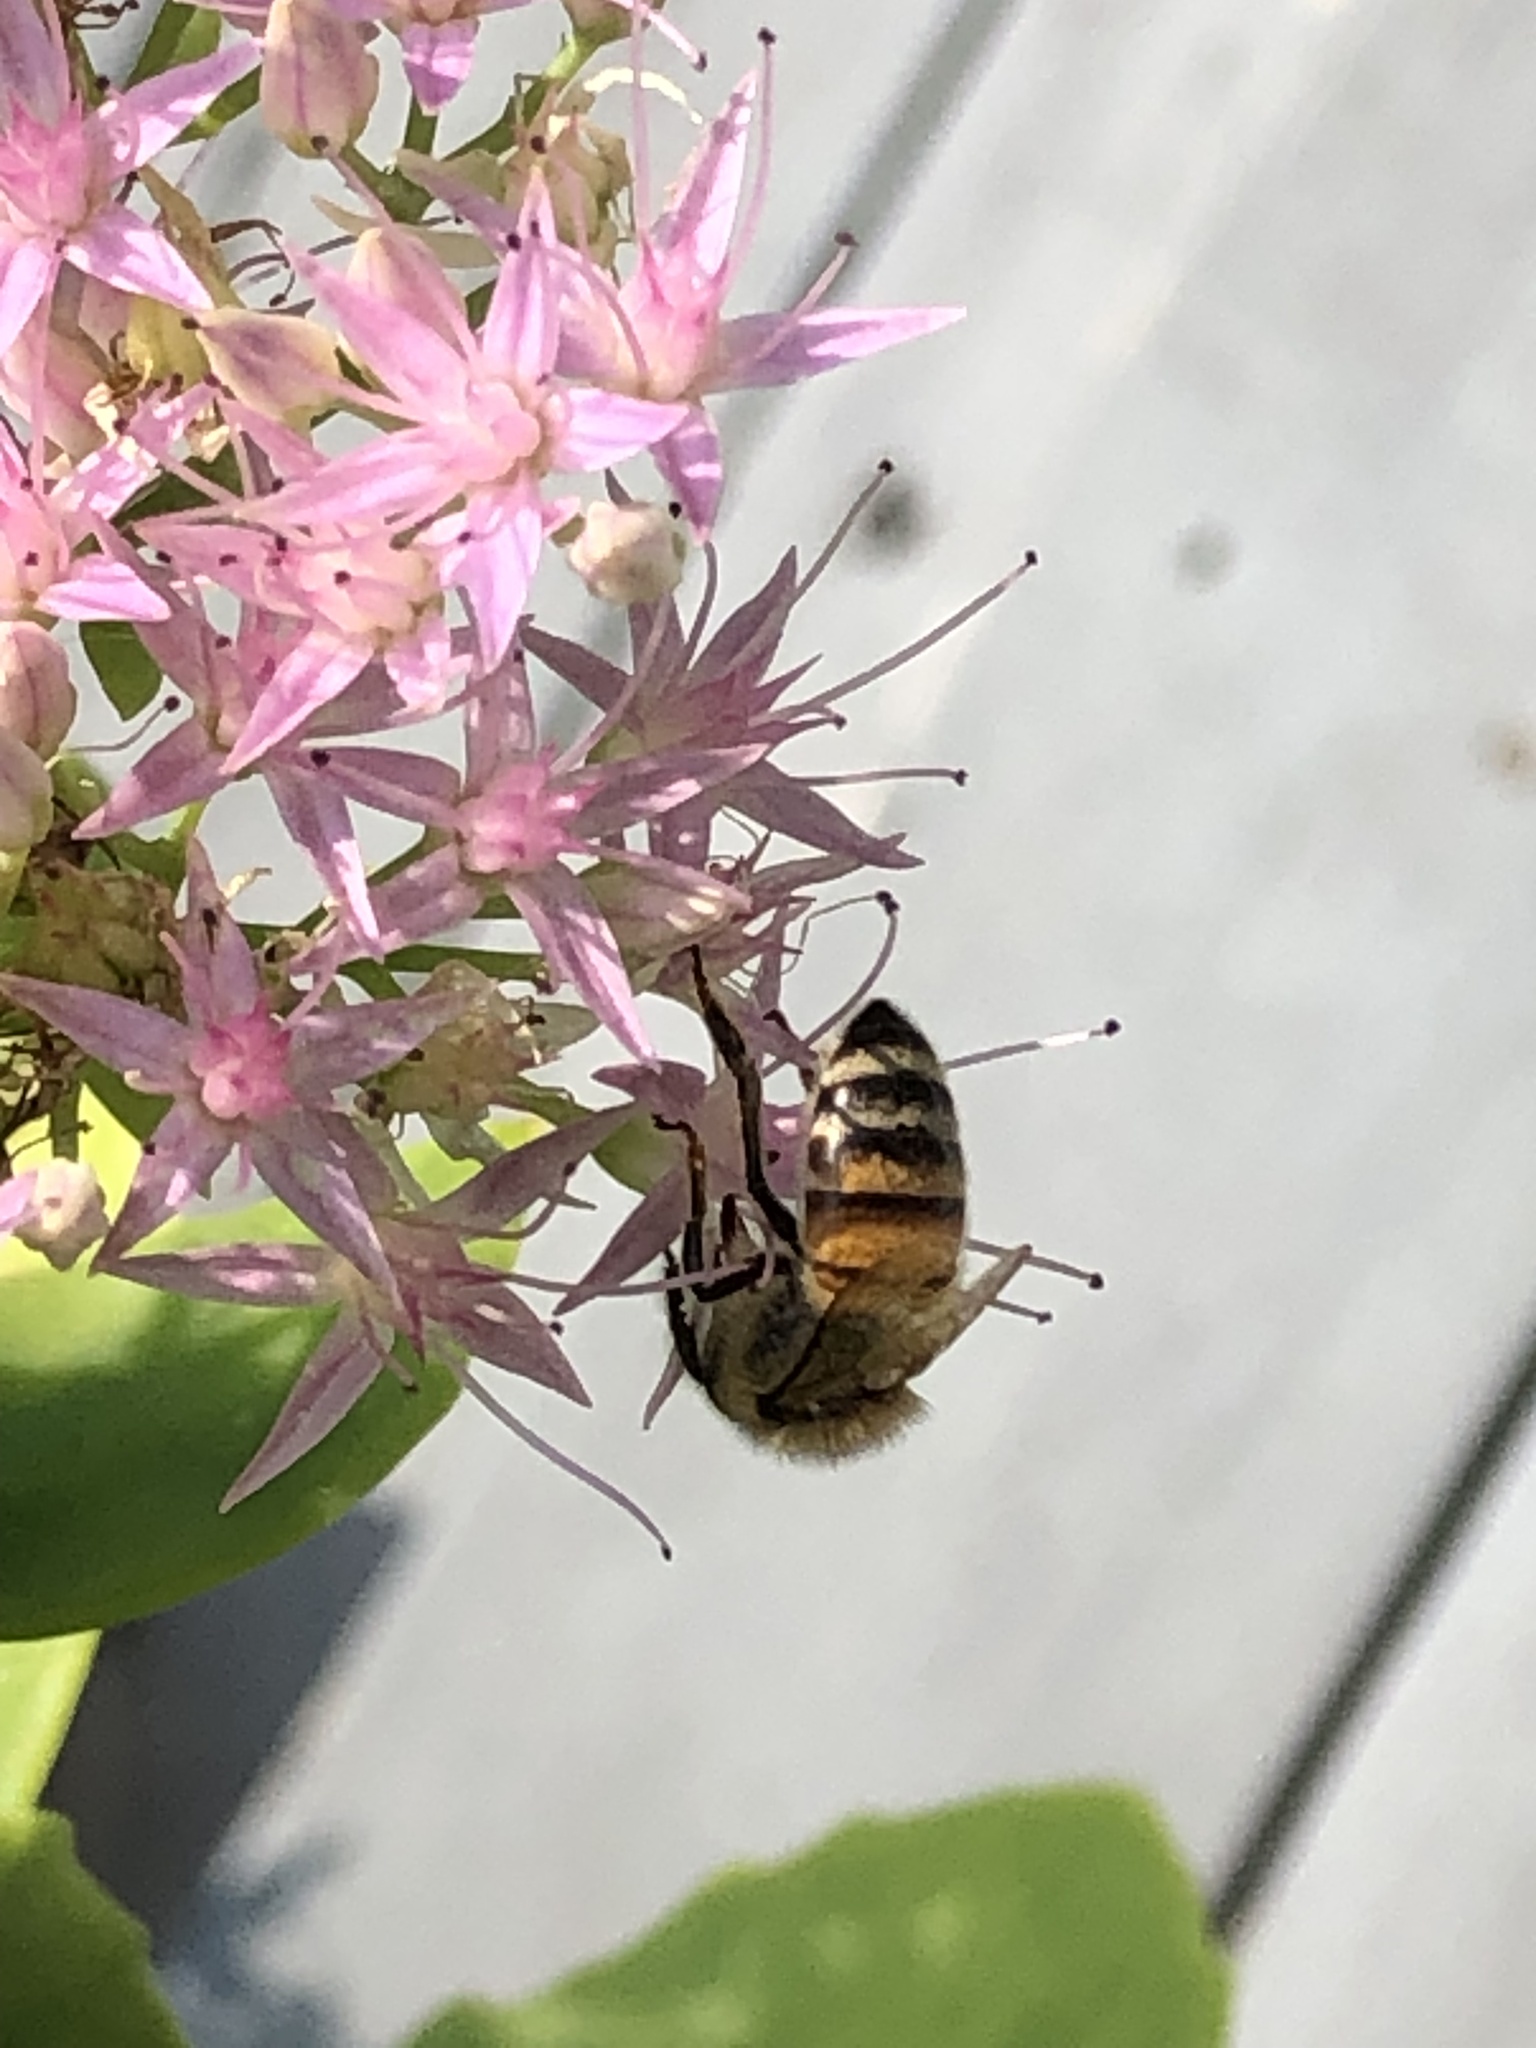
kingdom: Animalia
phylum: Arthropoda
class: Insecta
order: Hymenoptera
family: Apidae
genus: Apis
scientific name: Apis mellifera
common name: Honey bee
